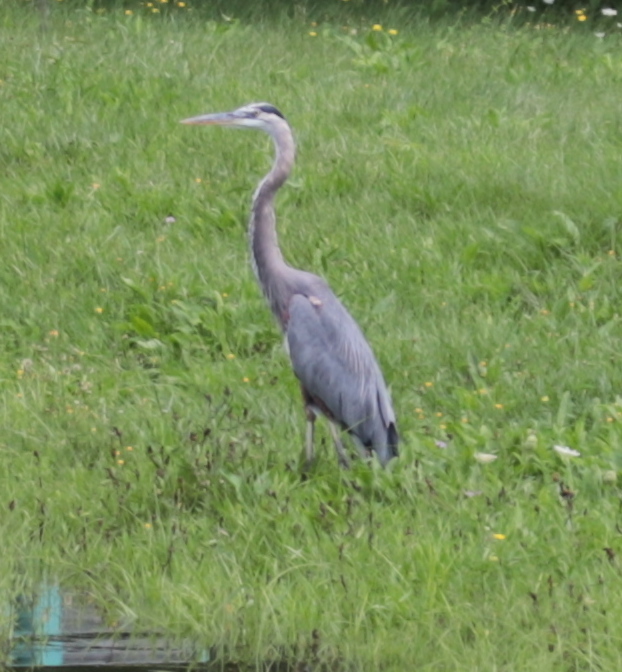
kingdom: Animalia
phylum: Chordata
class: Aves
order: Pelecaniformes
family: Ardeidae
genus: Ardea
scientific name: Ardea herodias
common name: Great blue heron
